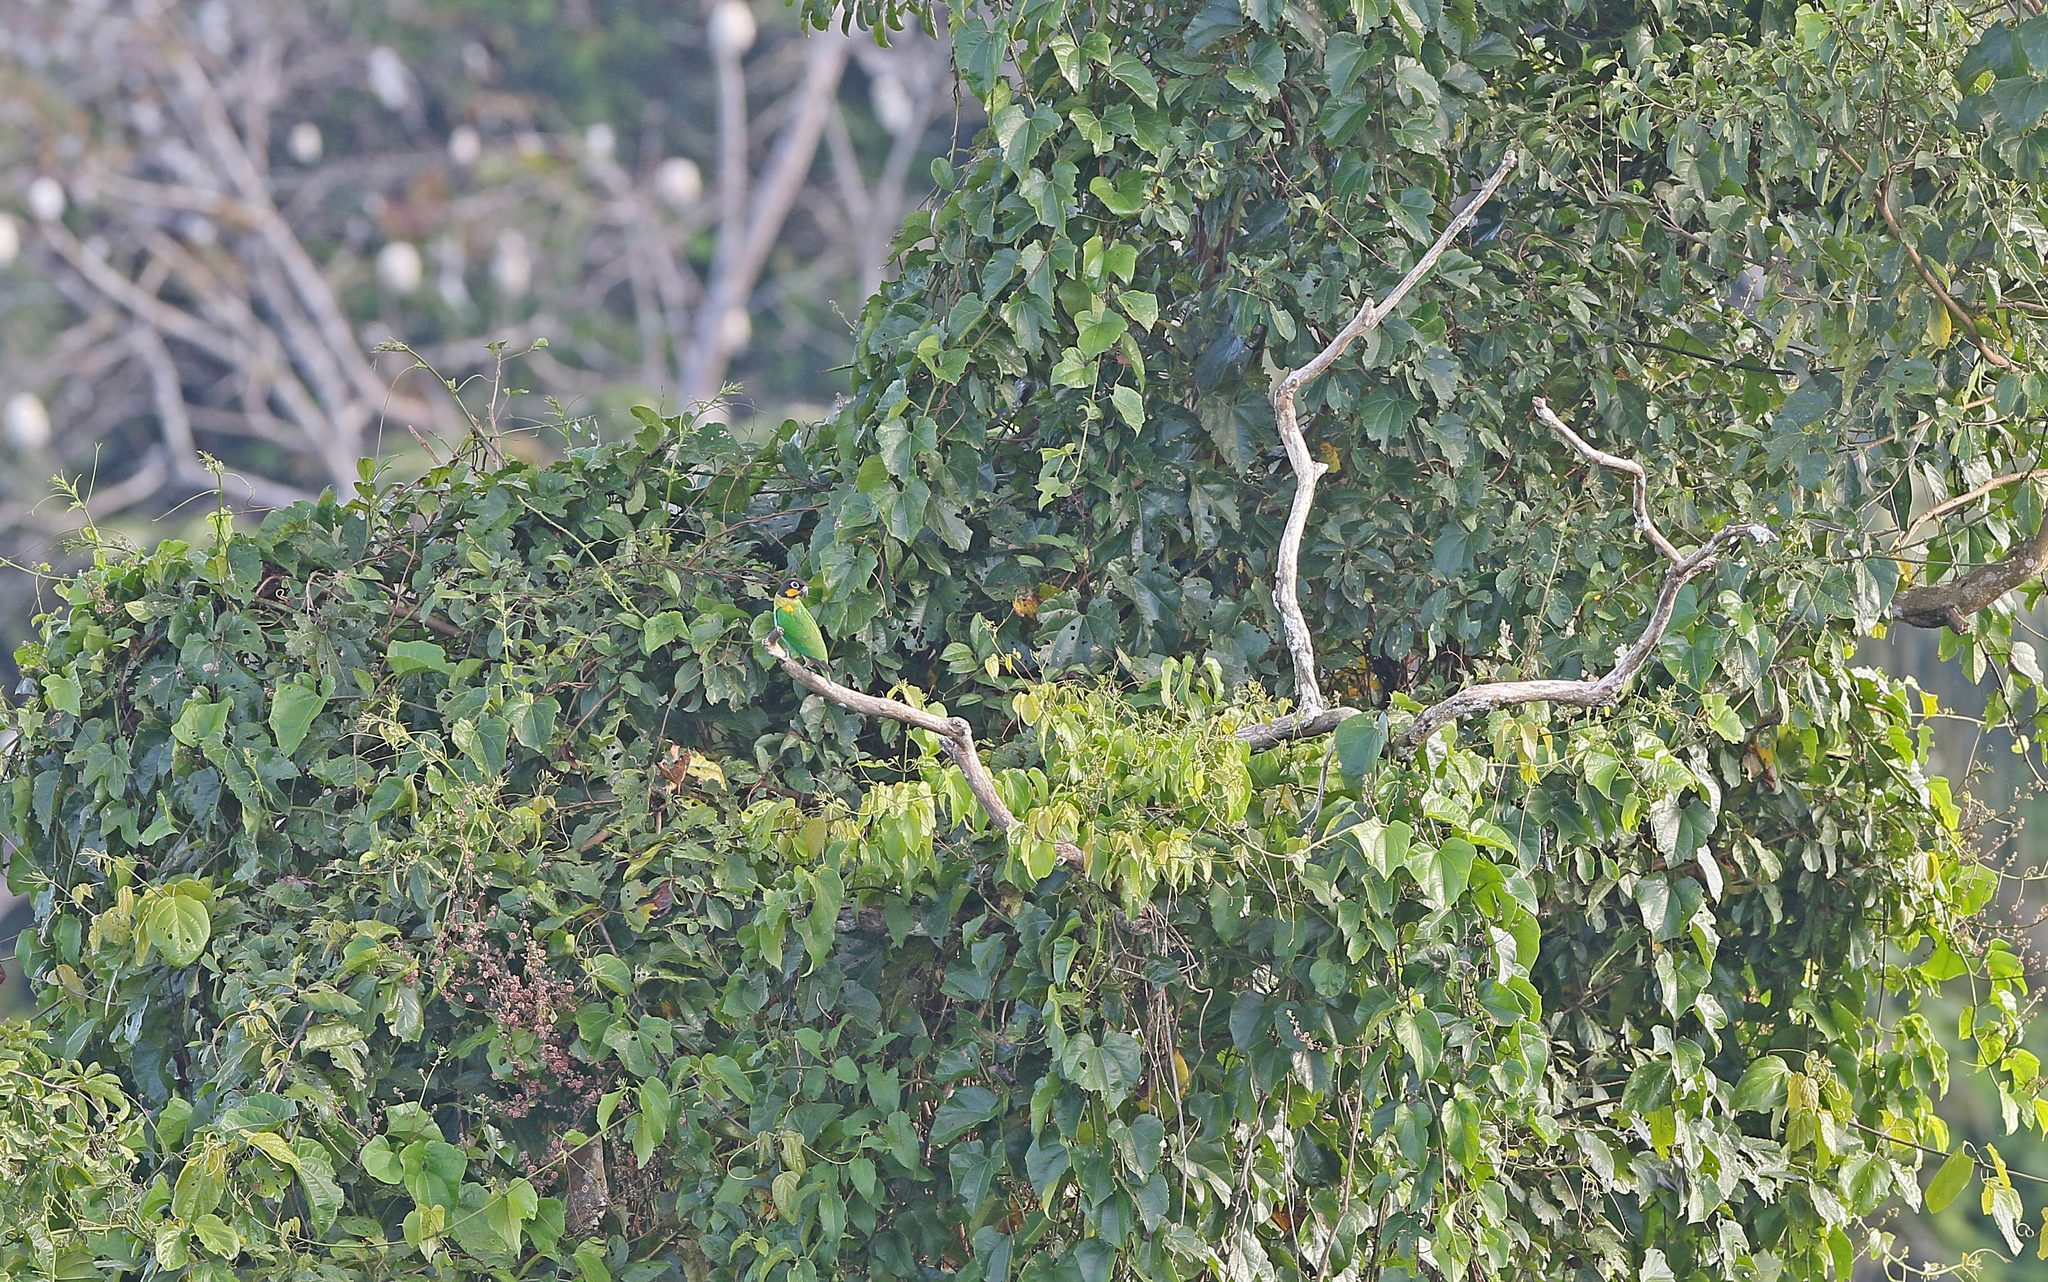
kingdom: Animalia
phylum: Chordata
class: Aves
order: Psittaciformes
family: Psittacidae
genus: Pionopsitta
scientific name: Pionopsitta barrabandi
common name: Orange-cheeked parrot
